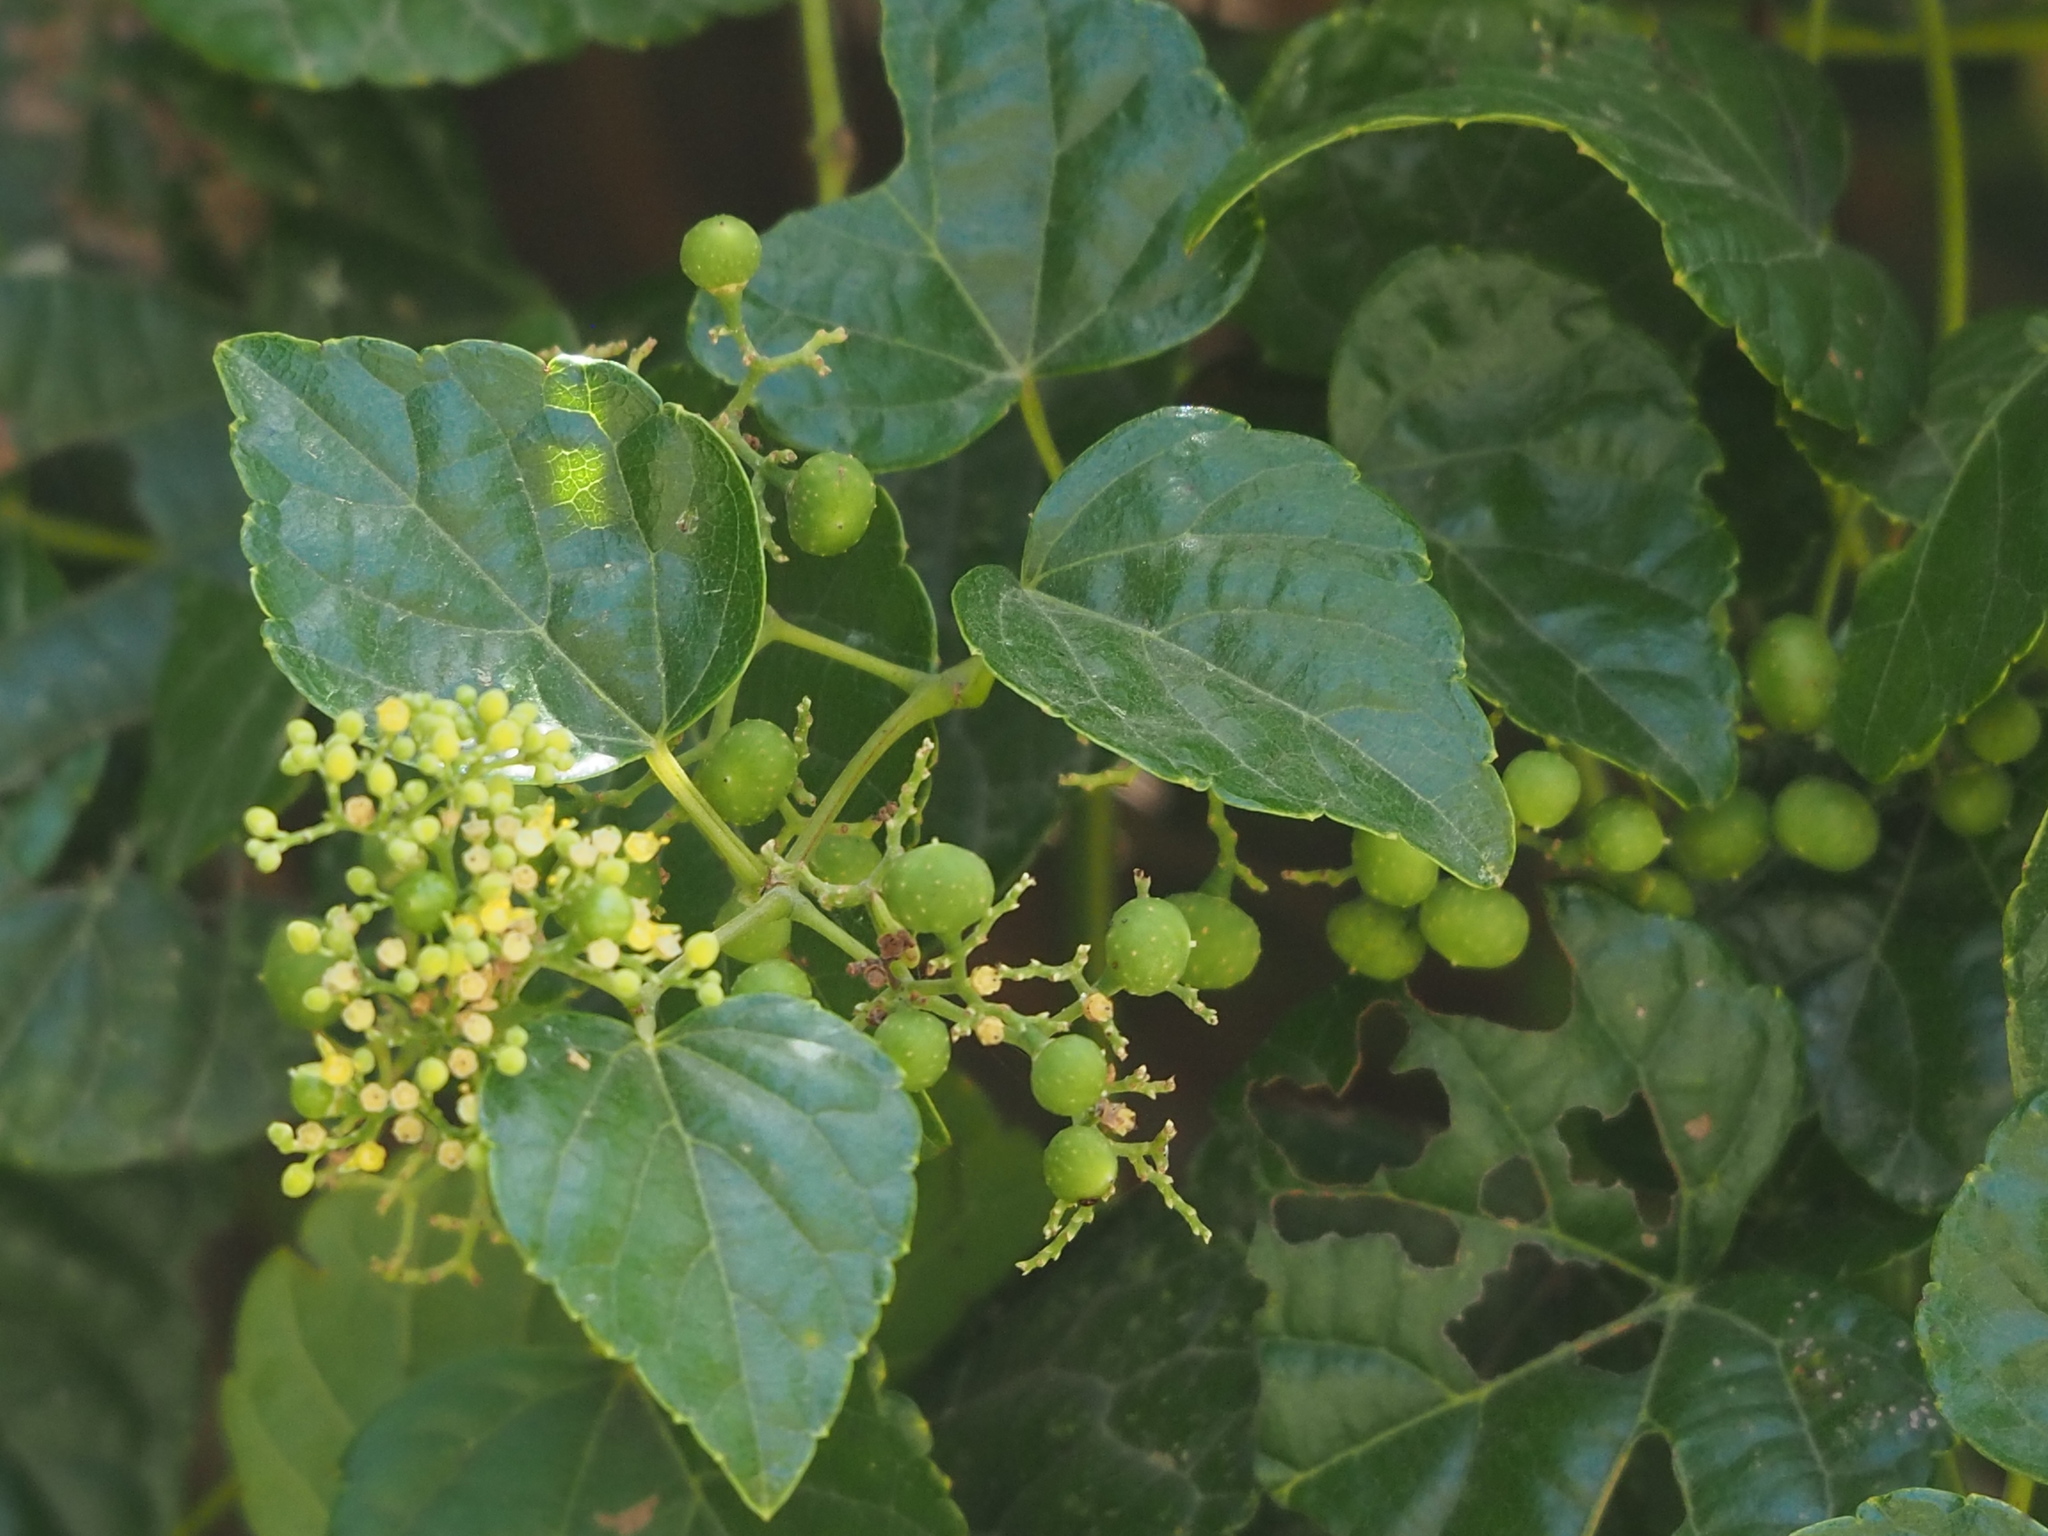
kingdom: Plantae
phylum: Tracheophyta
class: Magnoliopsida
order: Vitales
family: Vitaceae
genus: Ampelopsis
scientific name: Ampelopsis glandulosa
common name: Amur peppervine
